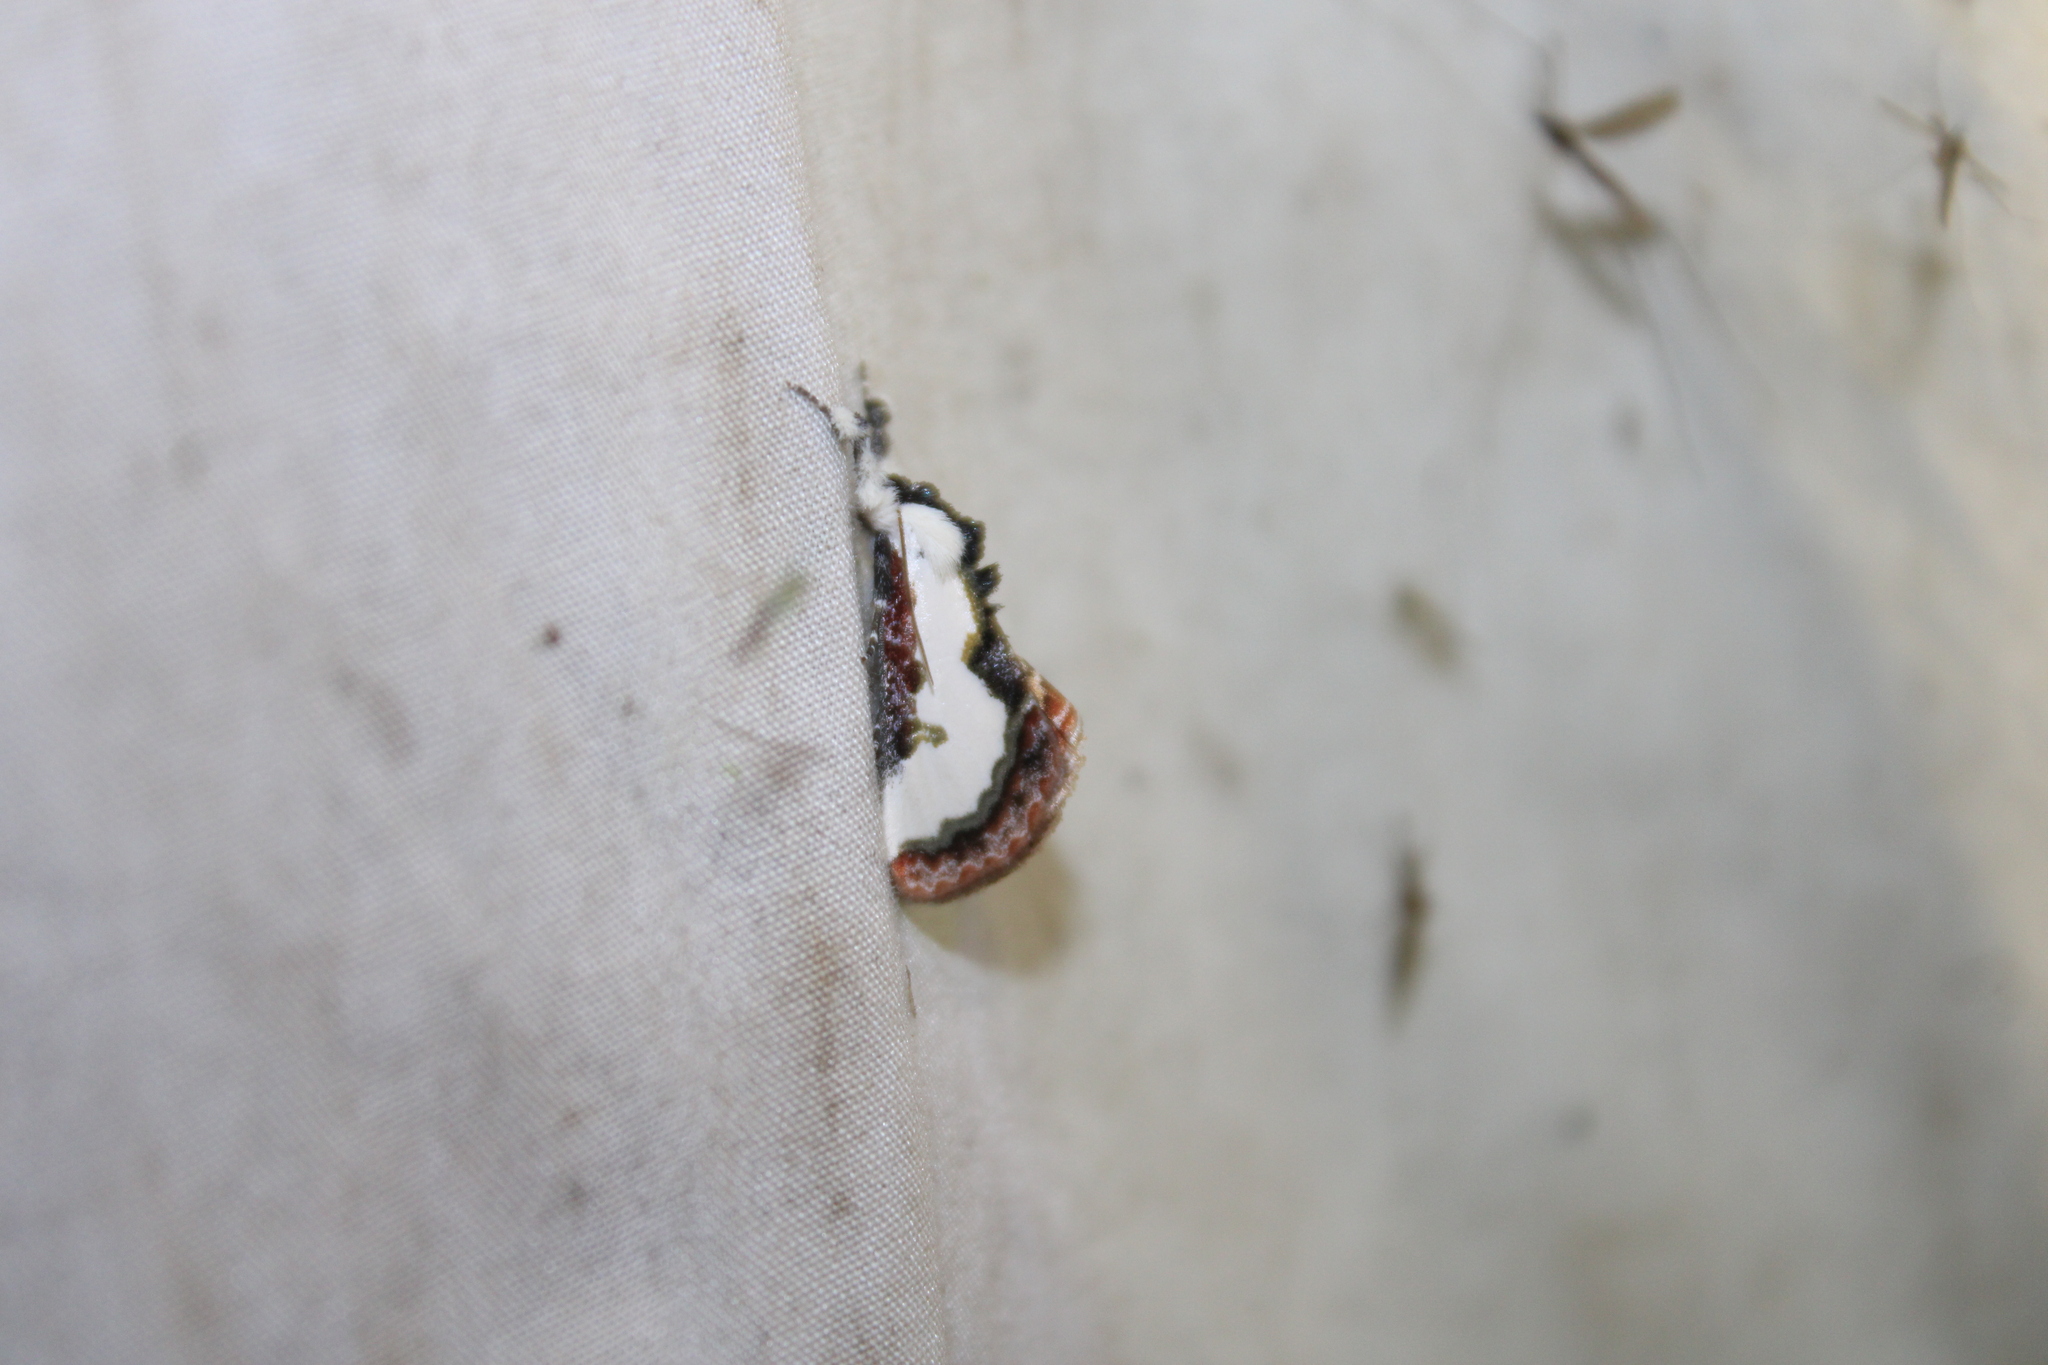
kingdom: Animalia
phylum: Arthropoda
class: Insecta
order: Lepidoptera
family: Noctuidae
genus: Eudryas
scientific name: Eudryas unio
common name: Pearly wood-nymph
